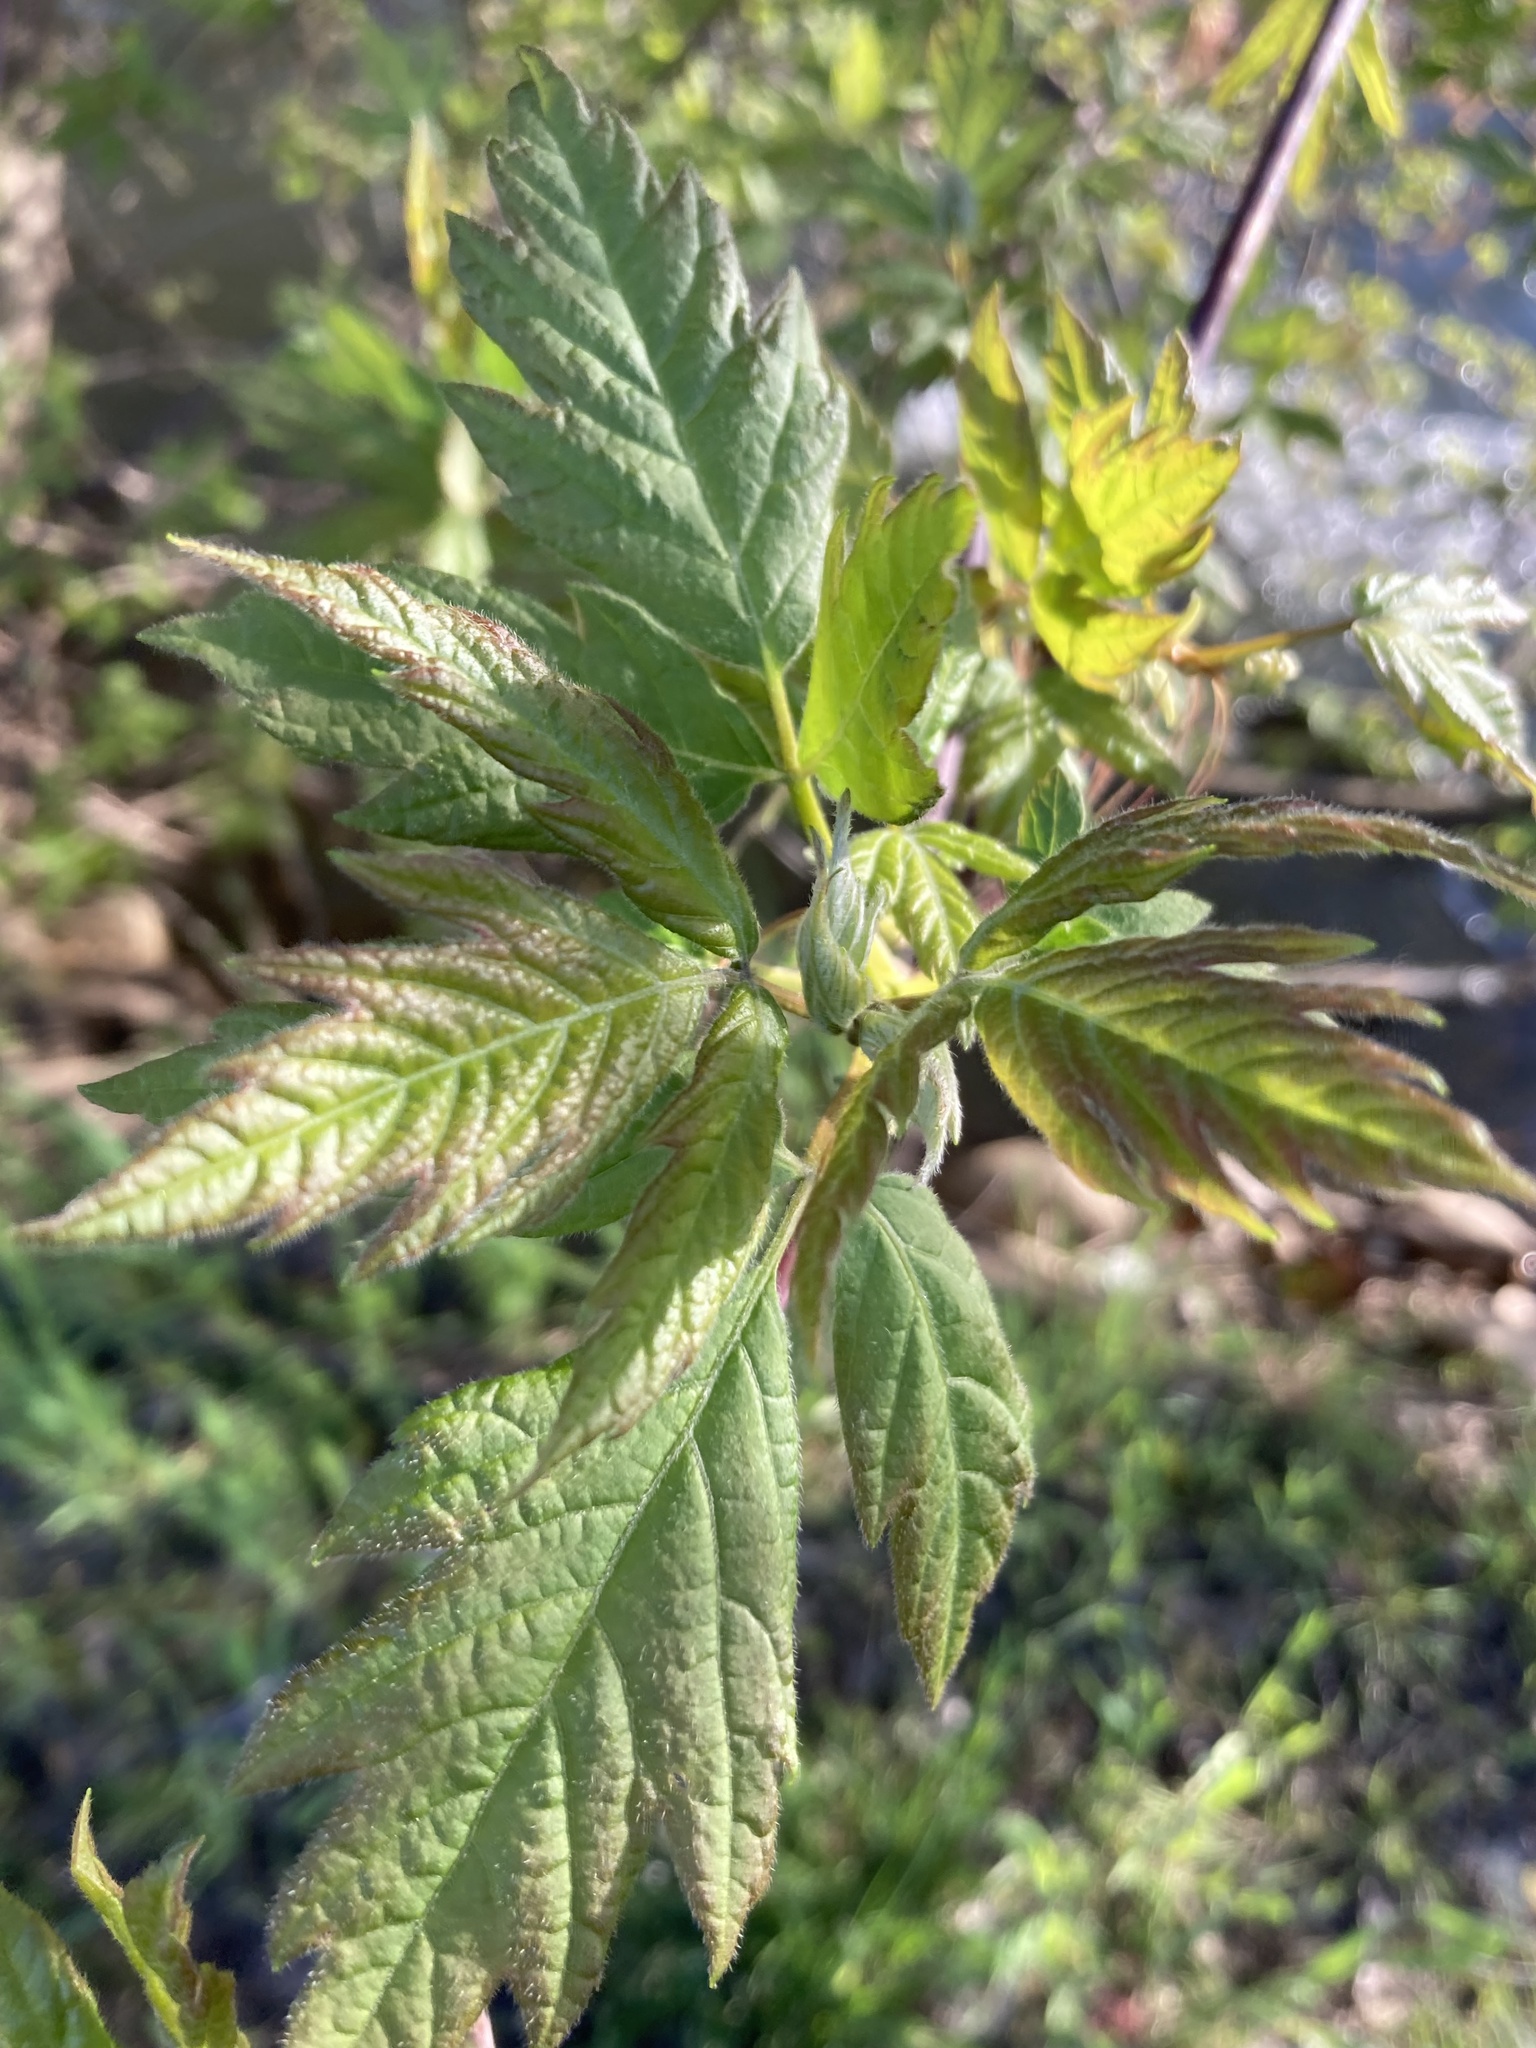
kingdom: Plantae
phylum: Tracheophyta
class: Magnoliopsida
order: Sapindales
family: Sapindaceae
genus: Acer
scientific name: Acer negundo
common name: Ashleaf maple
